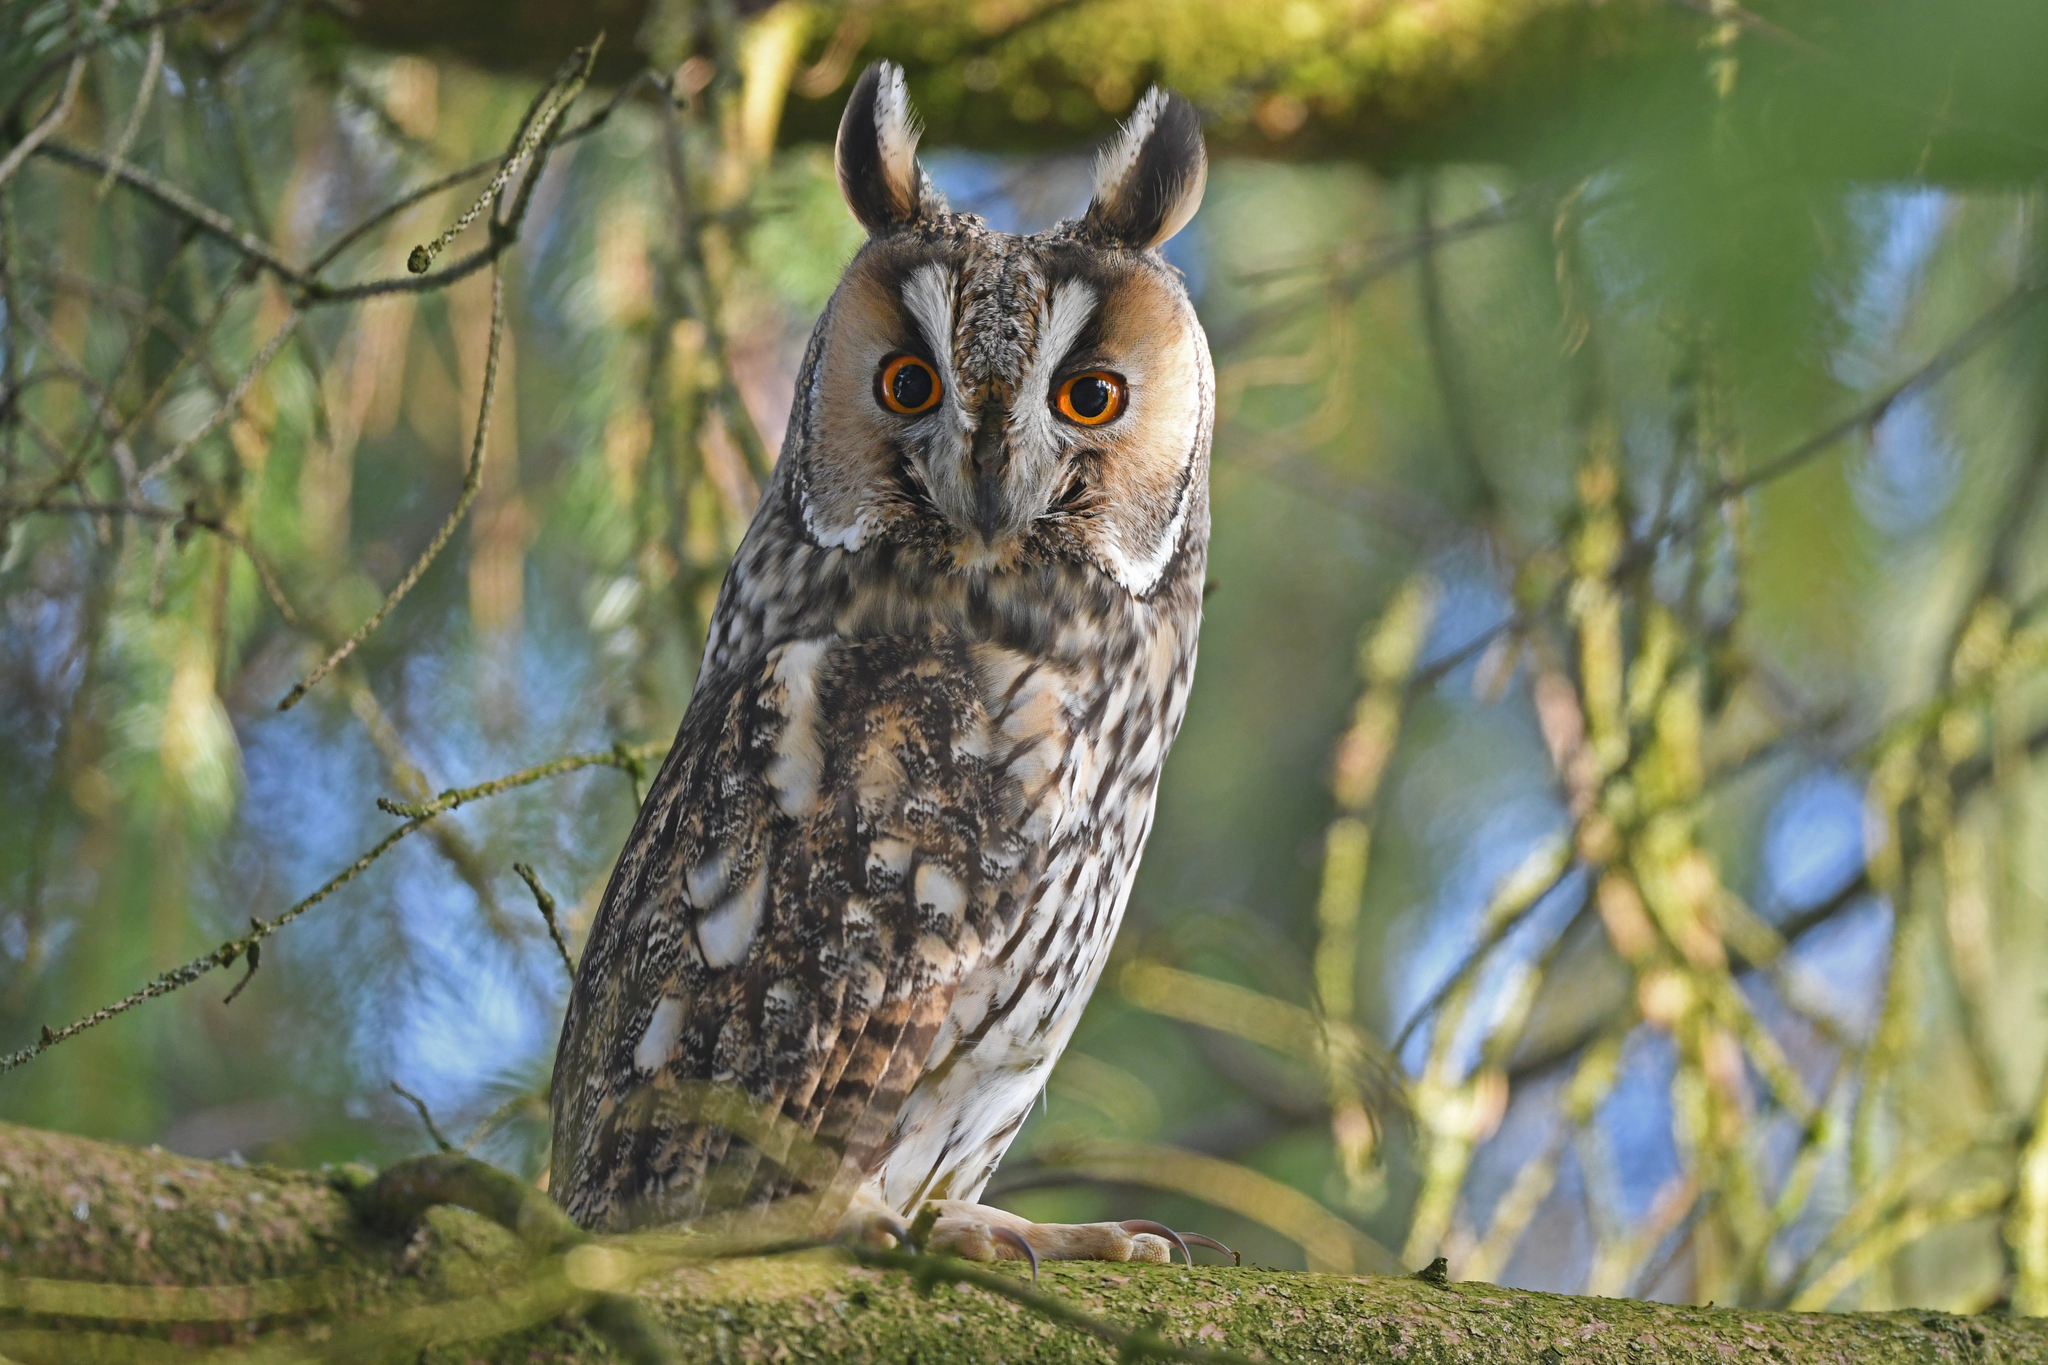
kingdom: Animalia
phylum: Chordata
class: Aves
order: Strigiformes
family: Strigidae
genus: Asio
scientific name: Asio otus
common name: Long-eared owl
